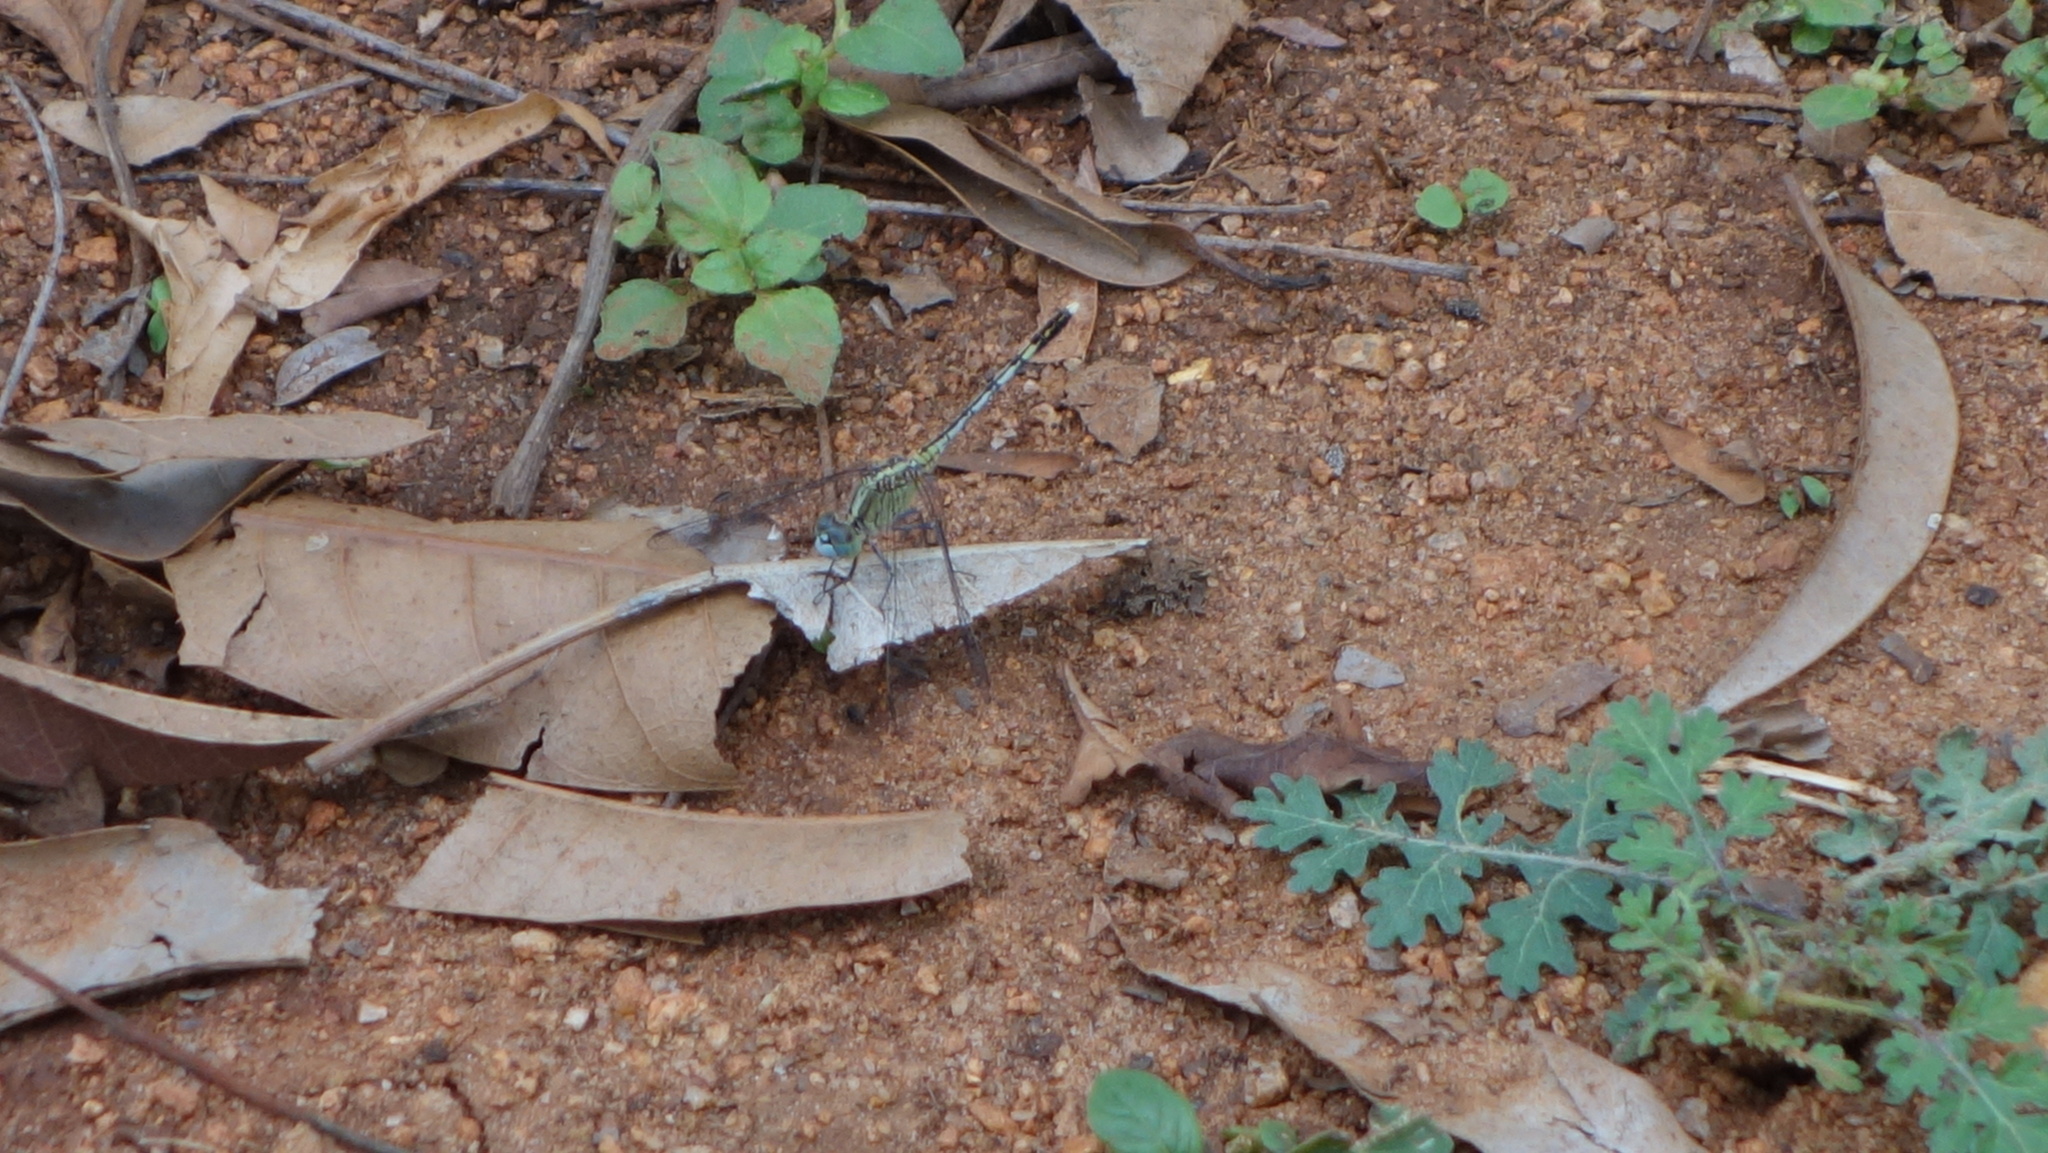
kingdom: Animalia
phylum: Arthropoda
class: Insecta
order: Odonata
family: Libellulidae
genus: Diplacodes
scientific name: Diplacodes trivialis
